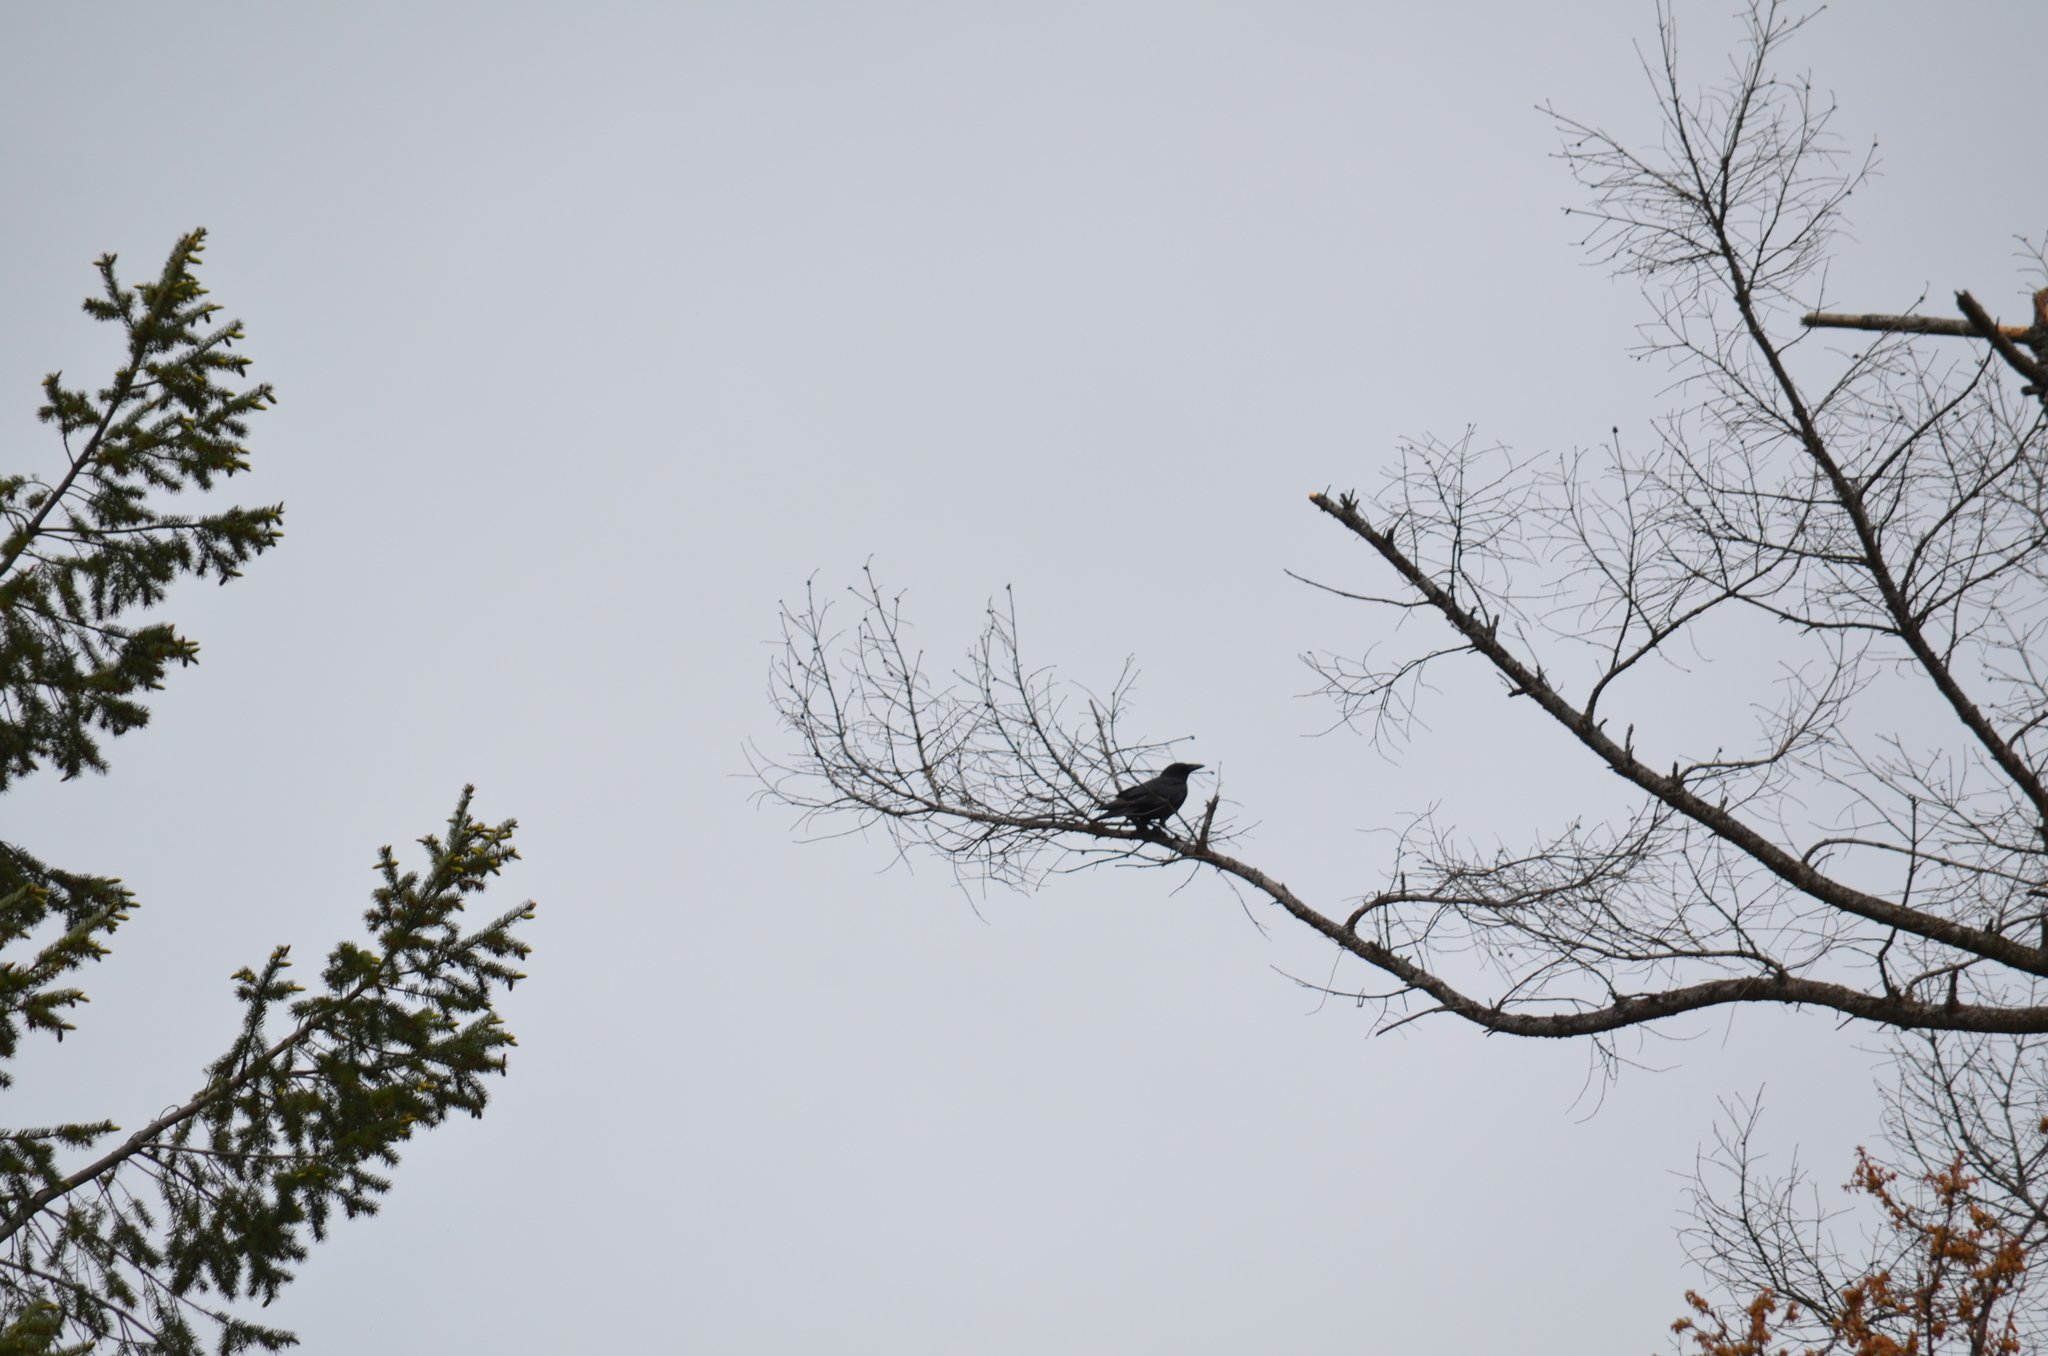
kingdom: Animalia
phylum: Chordata
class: Aves
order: Passeriformes
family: Corvidae
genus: Corvus
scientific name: Corvus corax
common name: Common raven
